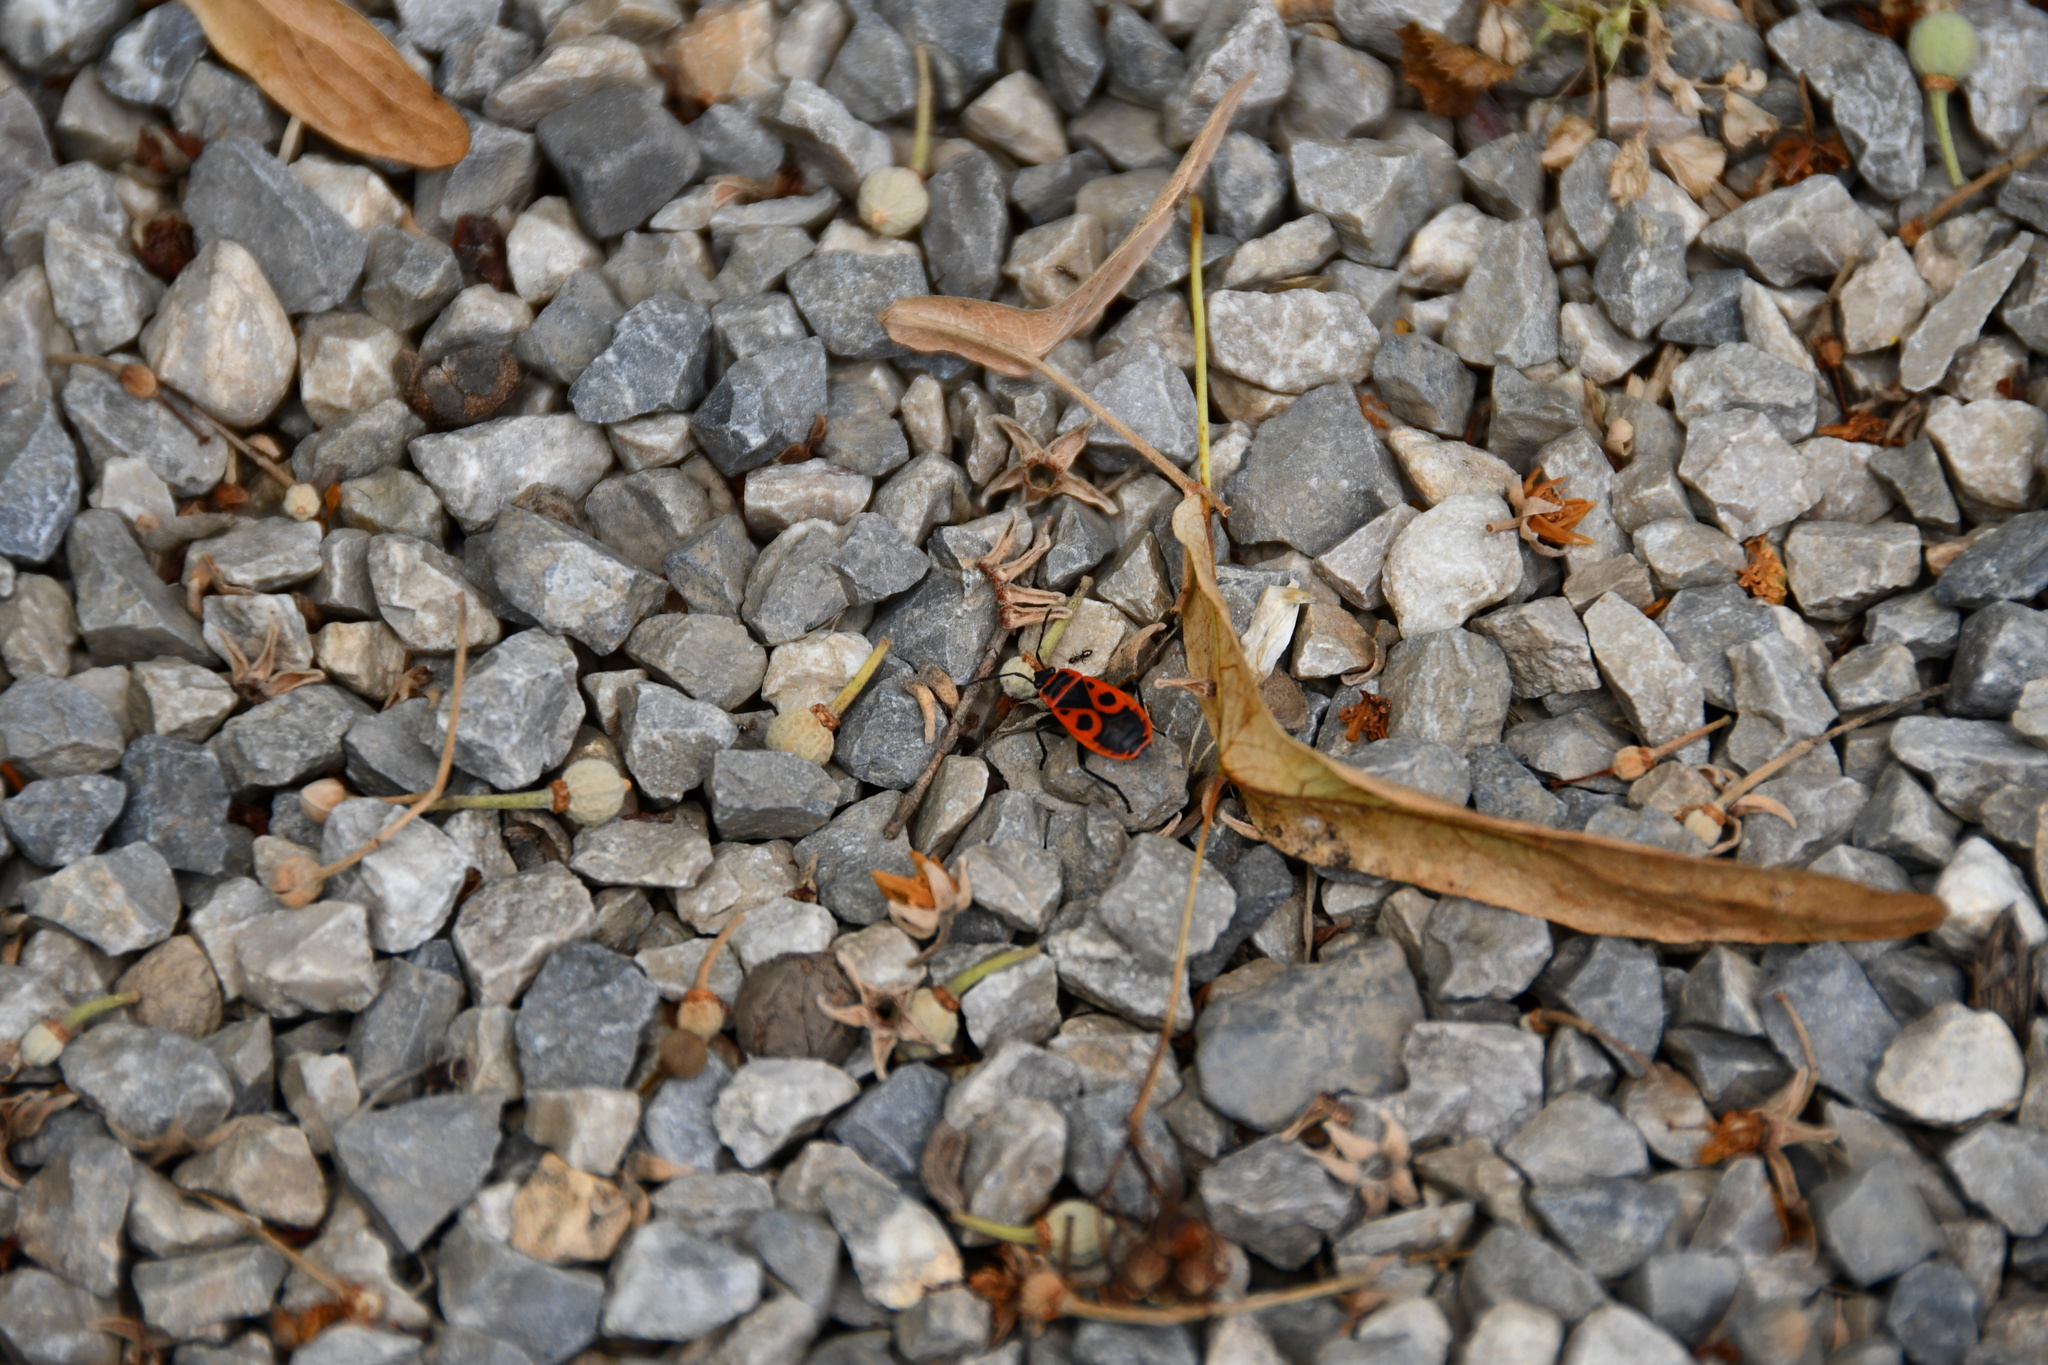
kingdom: Animalia
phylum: Arthropoda
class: Insecta
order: Hemiptera
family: Pyrrhocoridae
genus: Pyrrhocoris
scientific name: Pyrrhocoris apterus
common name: Firebug
